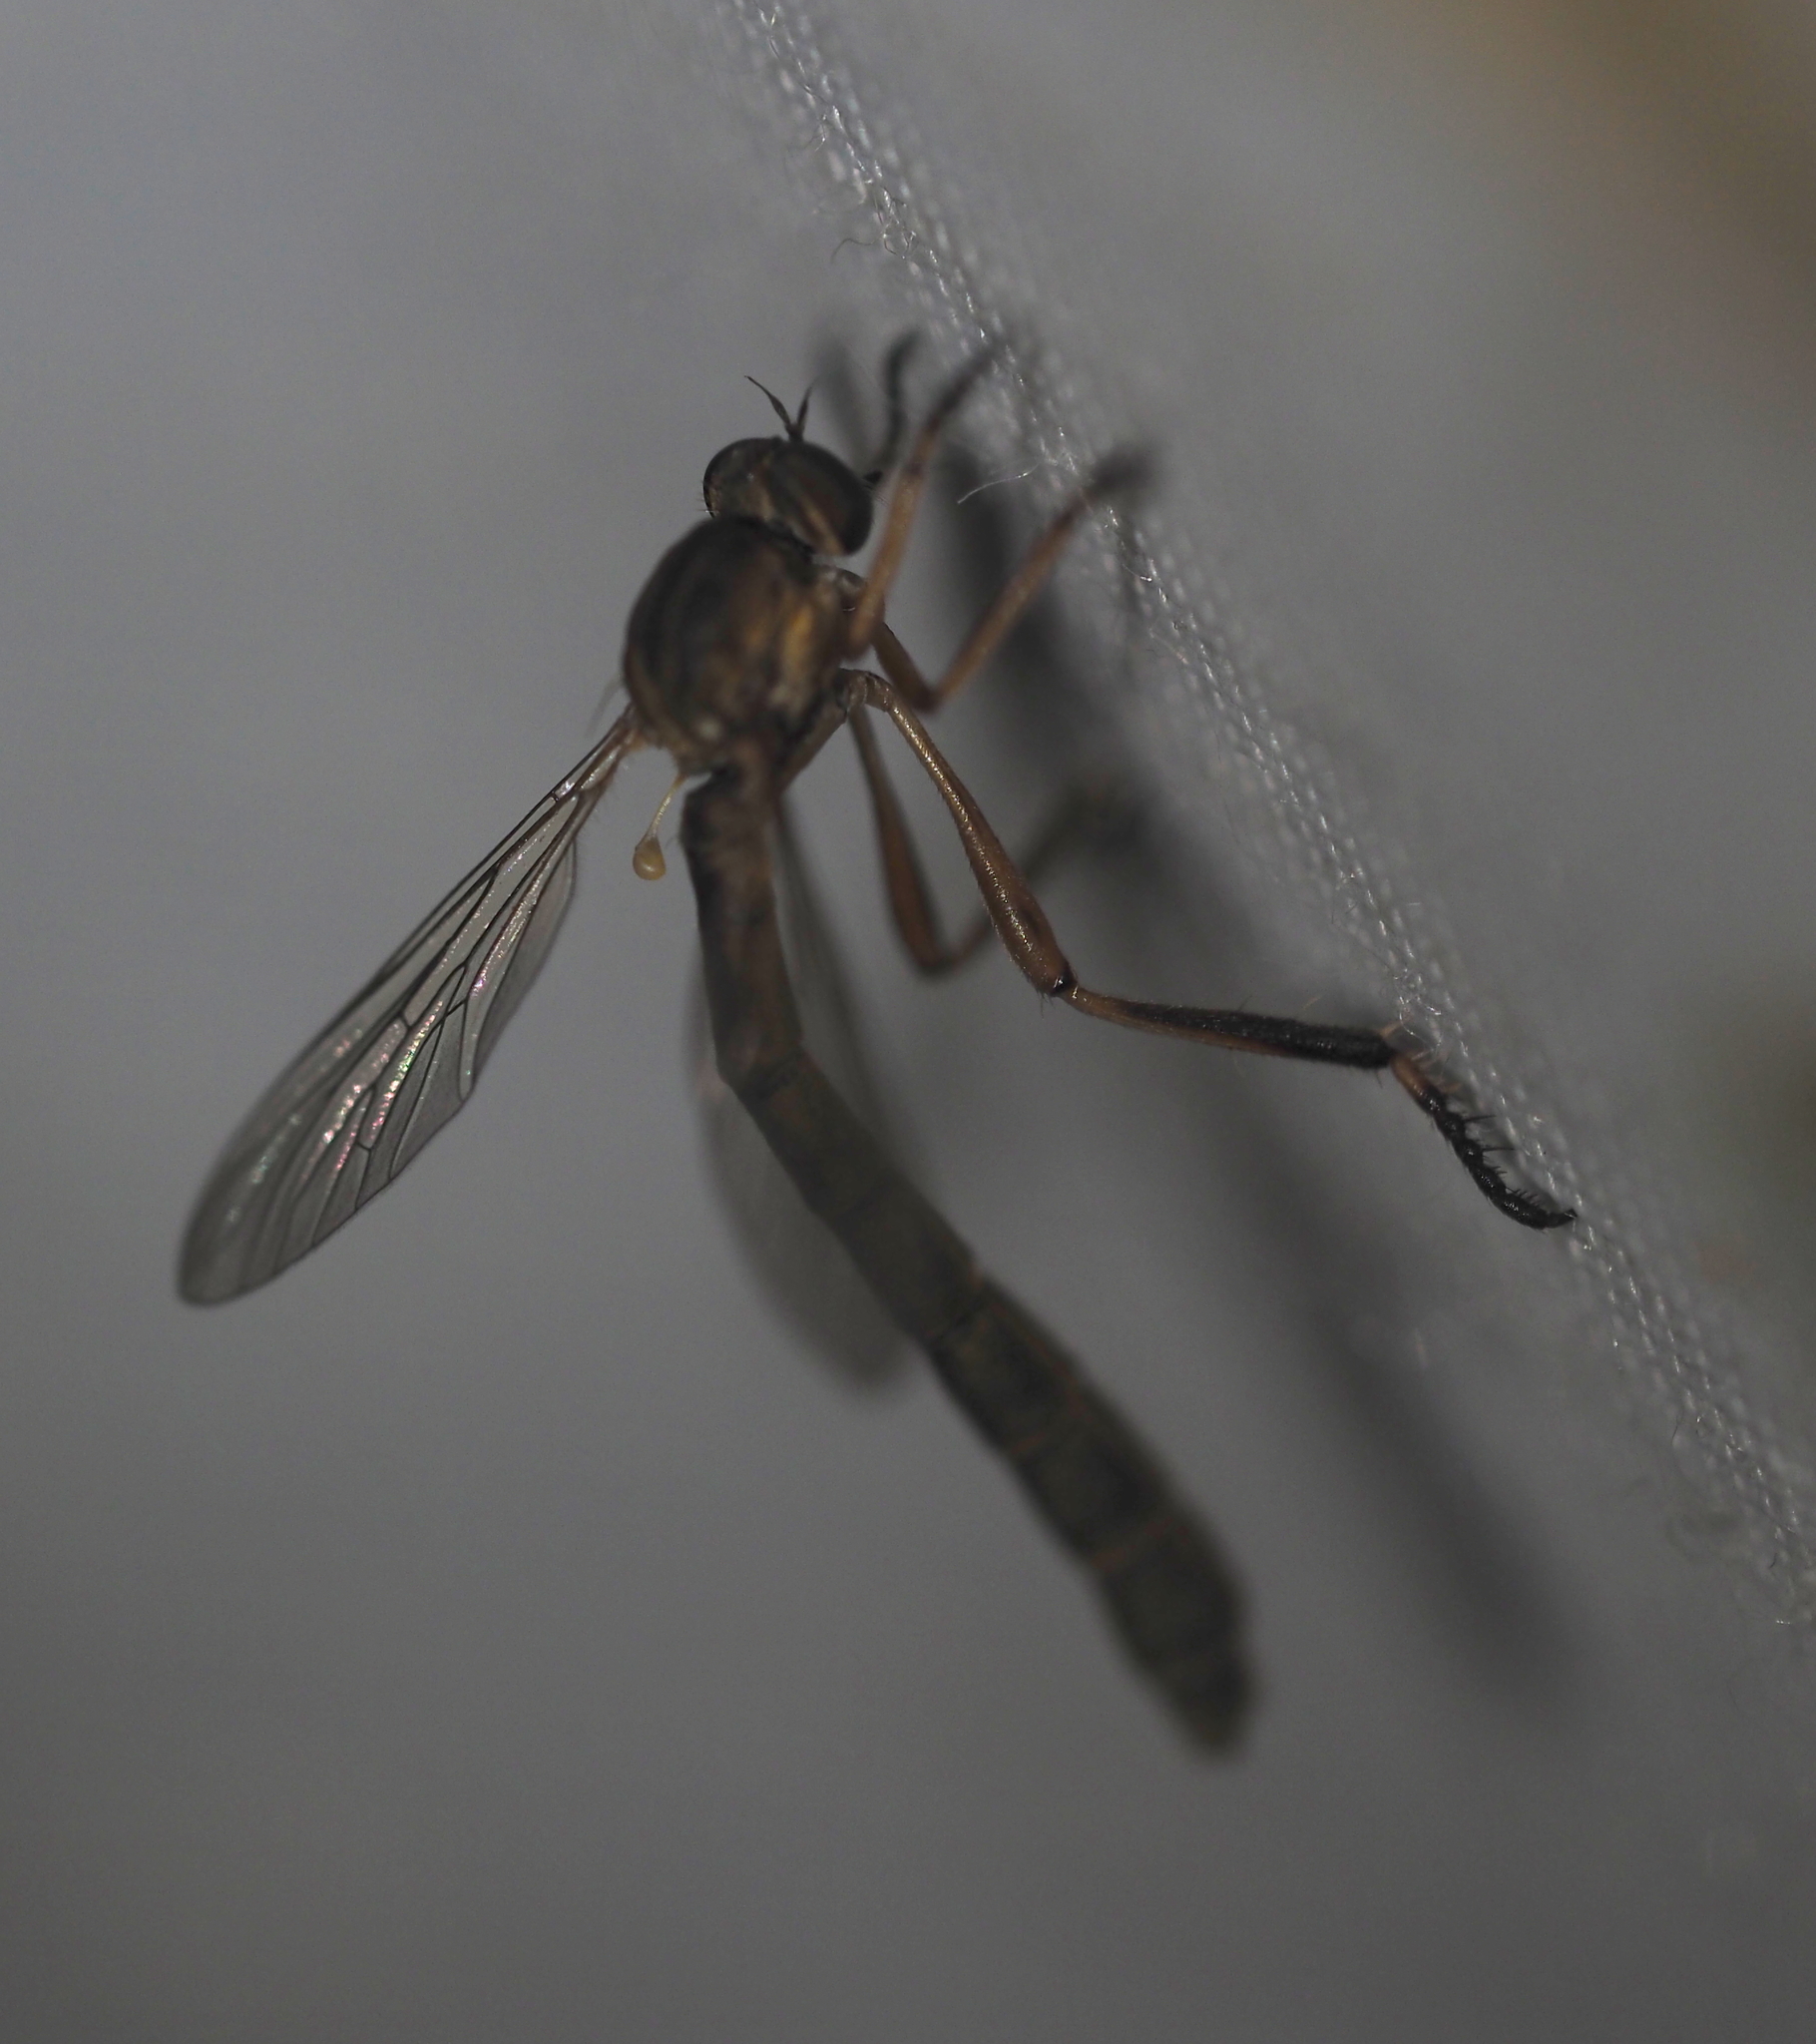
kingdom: Animalia
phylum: Arthropoda
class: Insecta
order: Diptera
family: Asilidae
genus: Leptogaster
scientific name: Leptogaster cylindrica
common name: Striped slender robberfly
